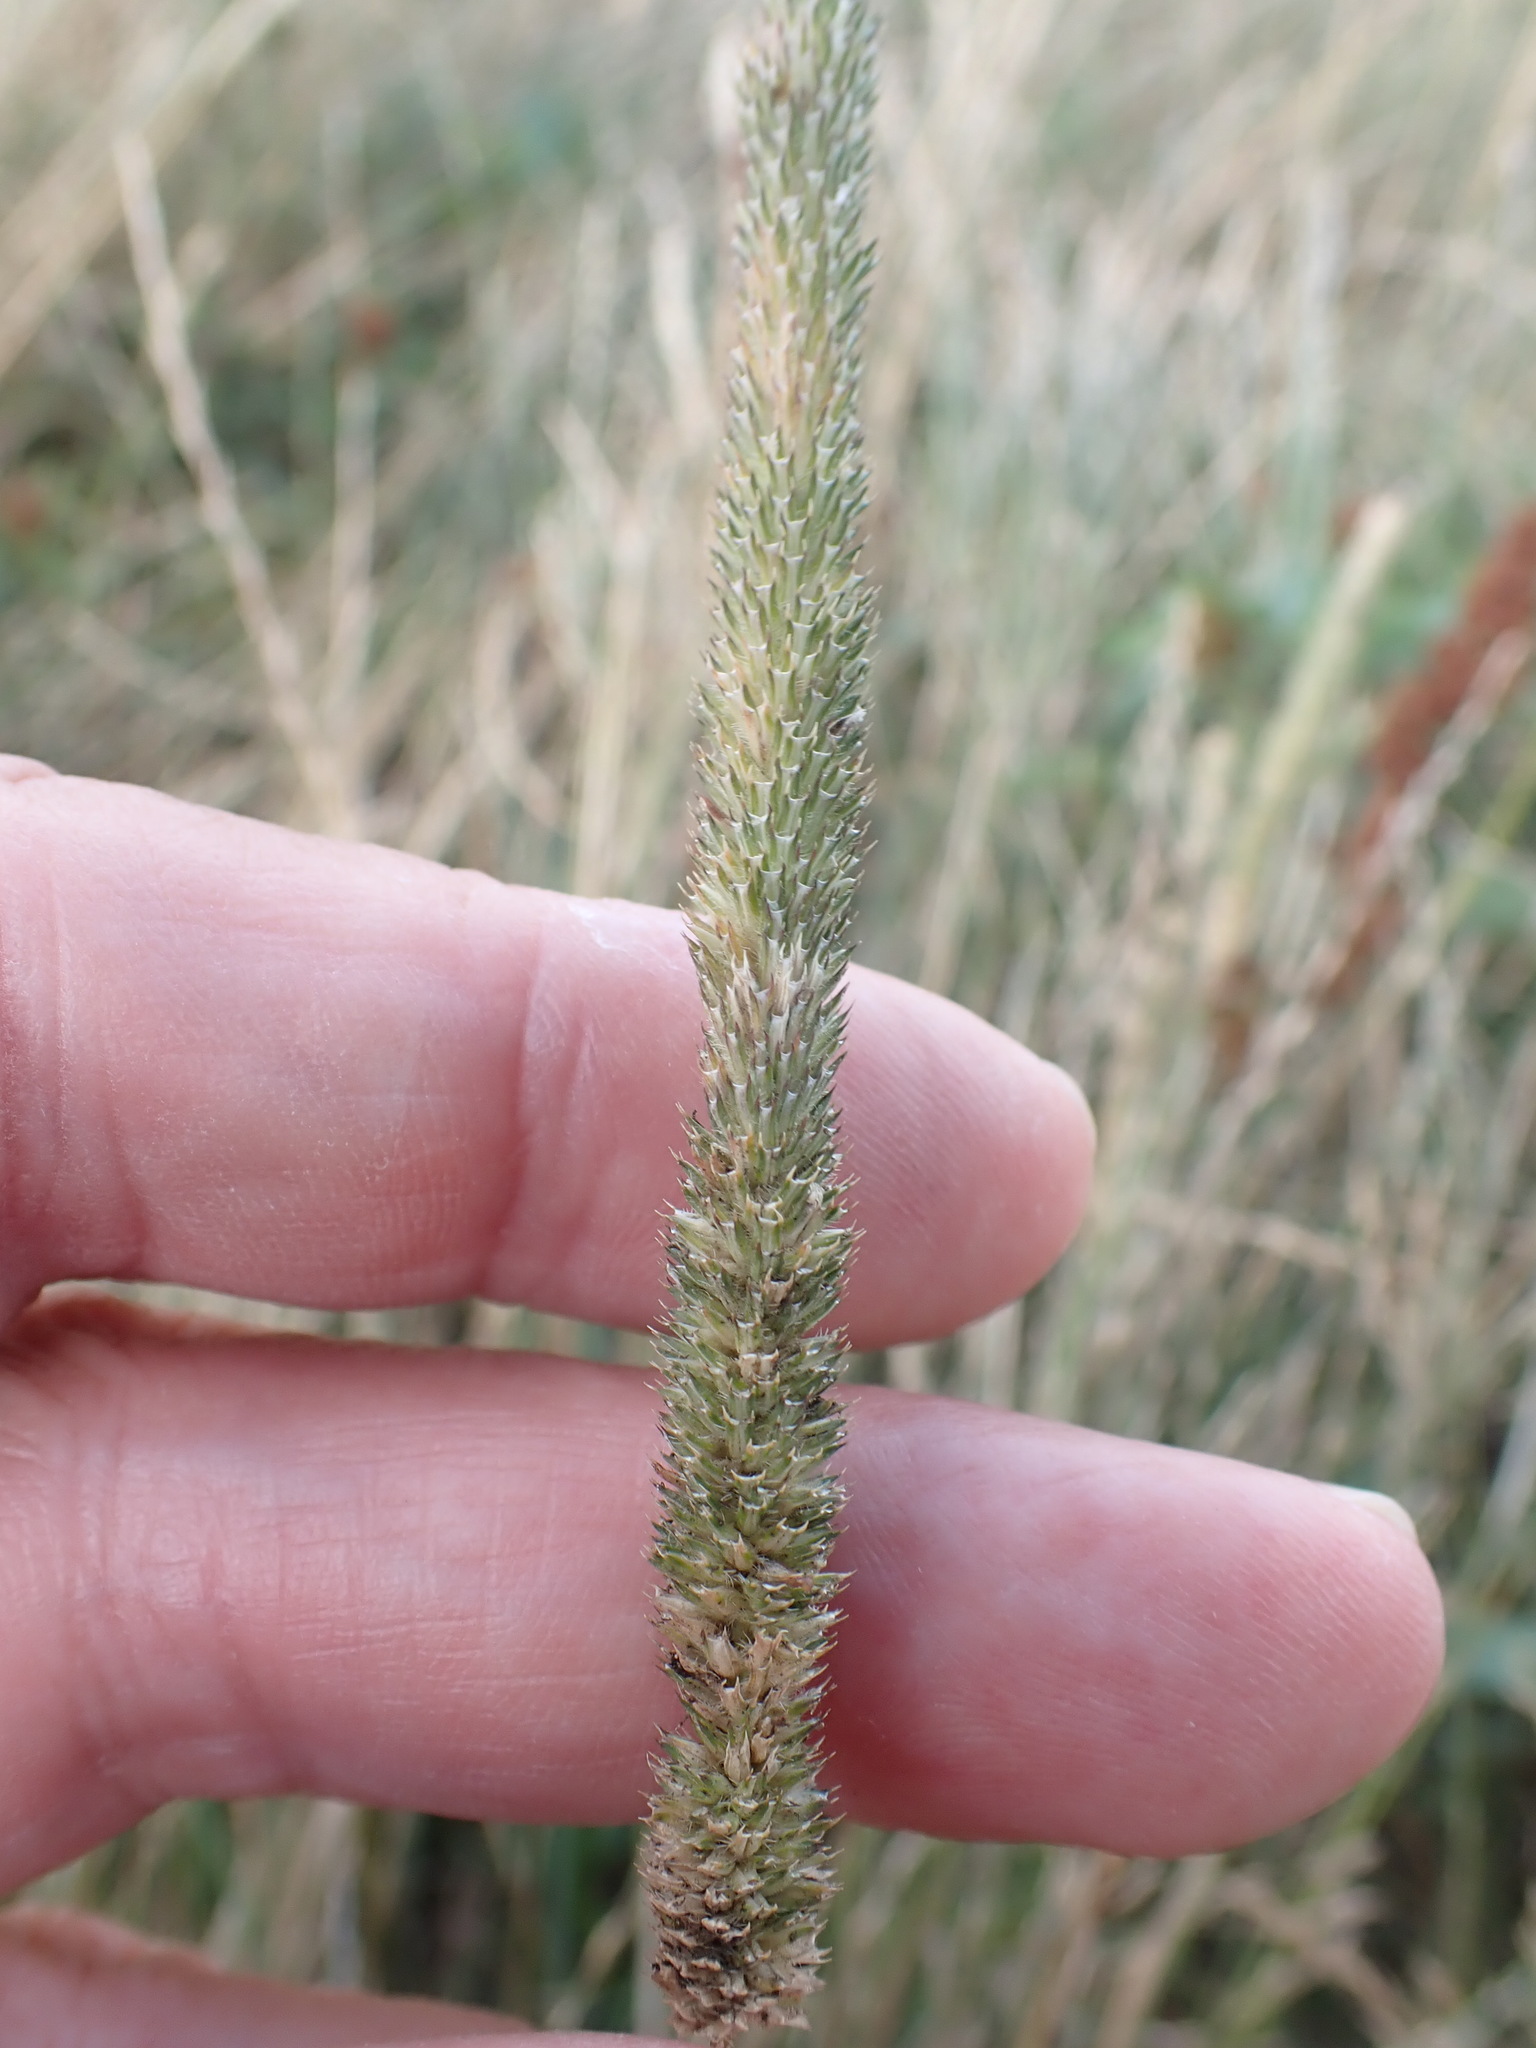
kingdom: Plantae
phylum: Tracheophyta
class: Liliopsida
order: Poales
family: Poaceae
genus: Phleum
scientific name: Phleum pratense
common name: Timothy grass
